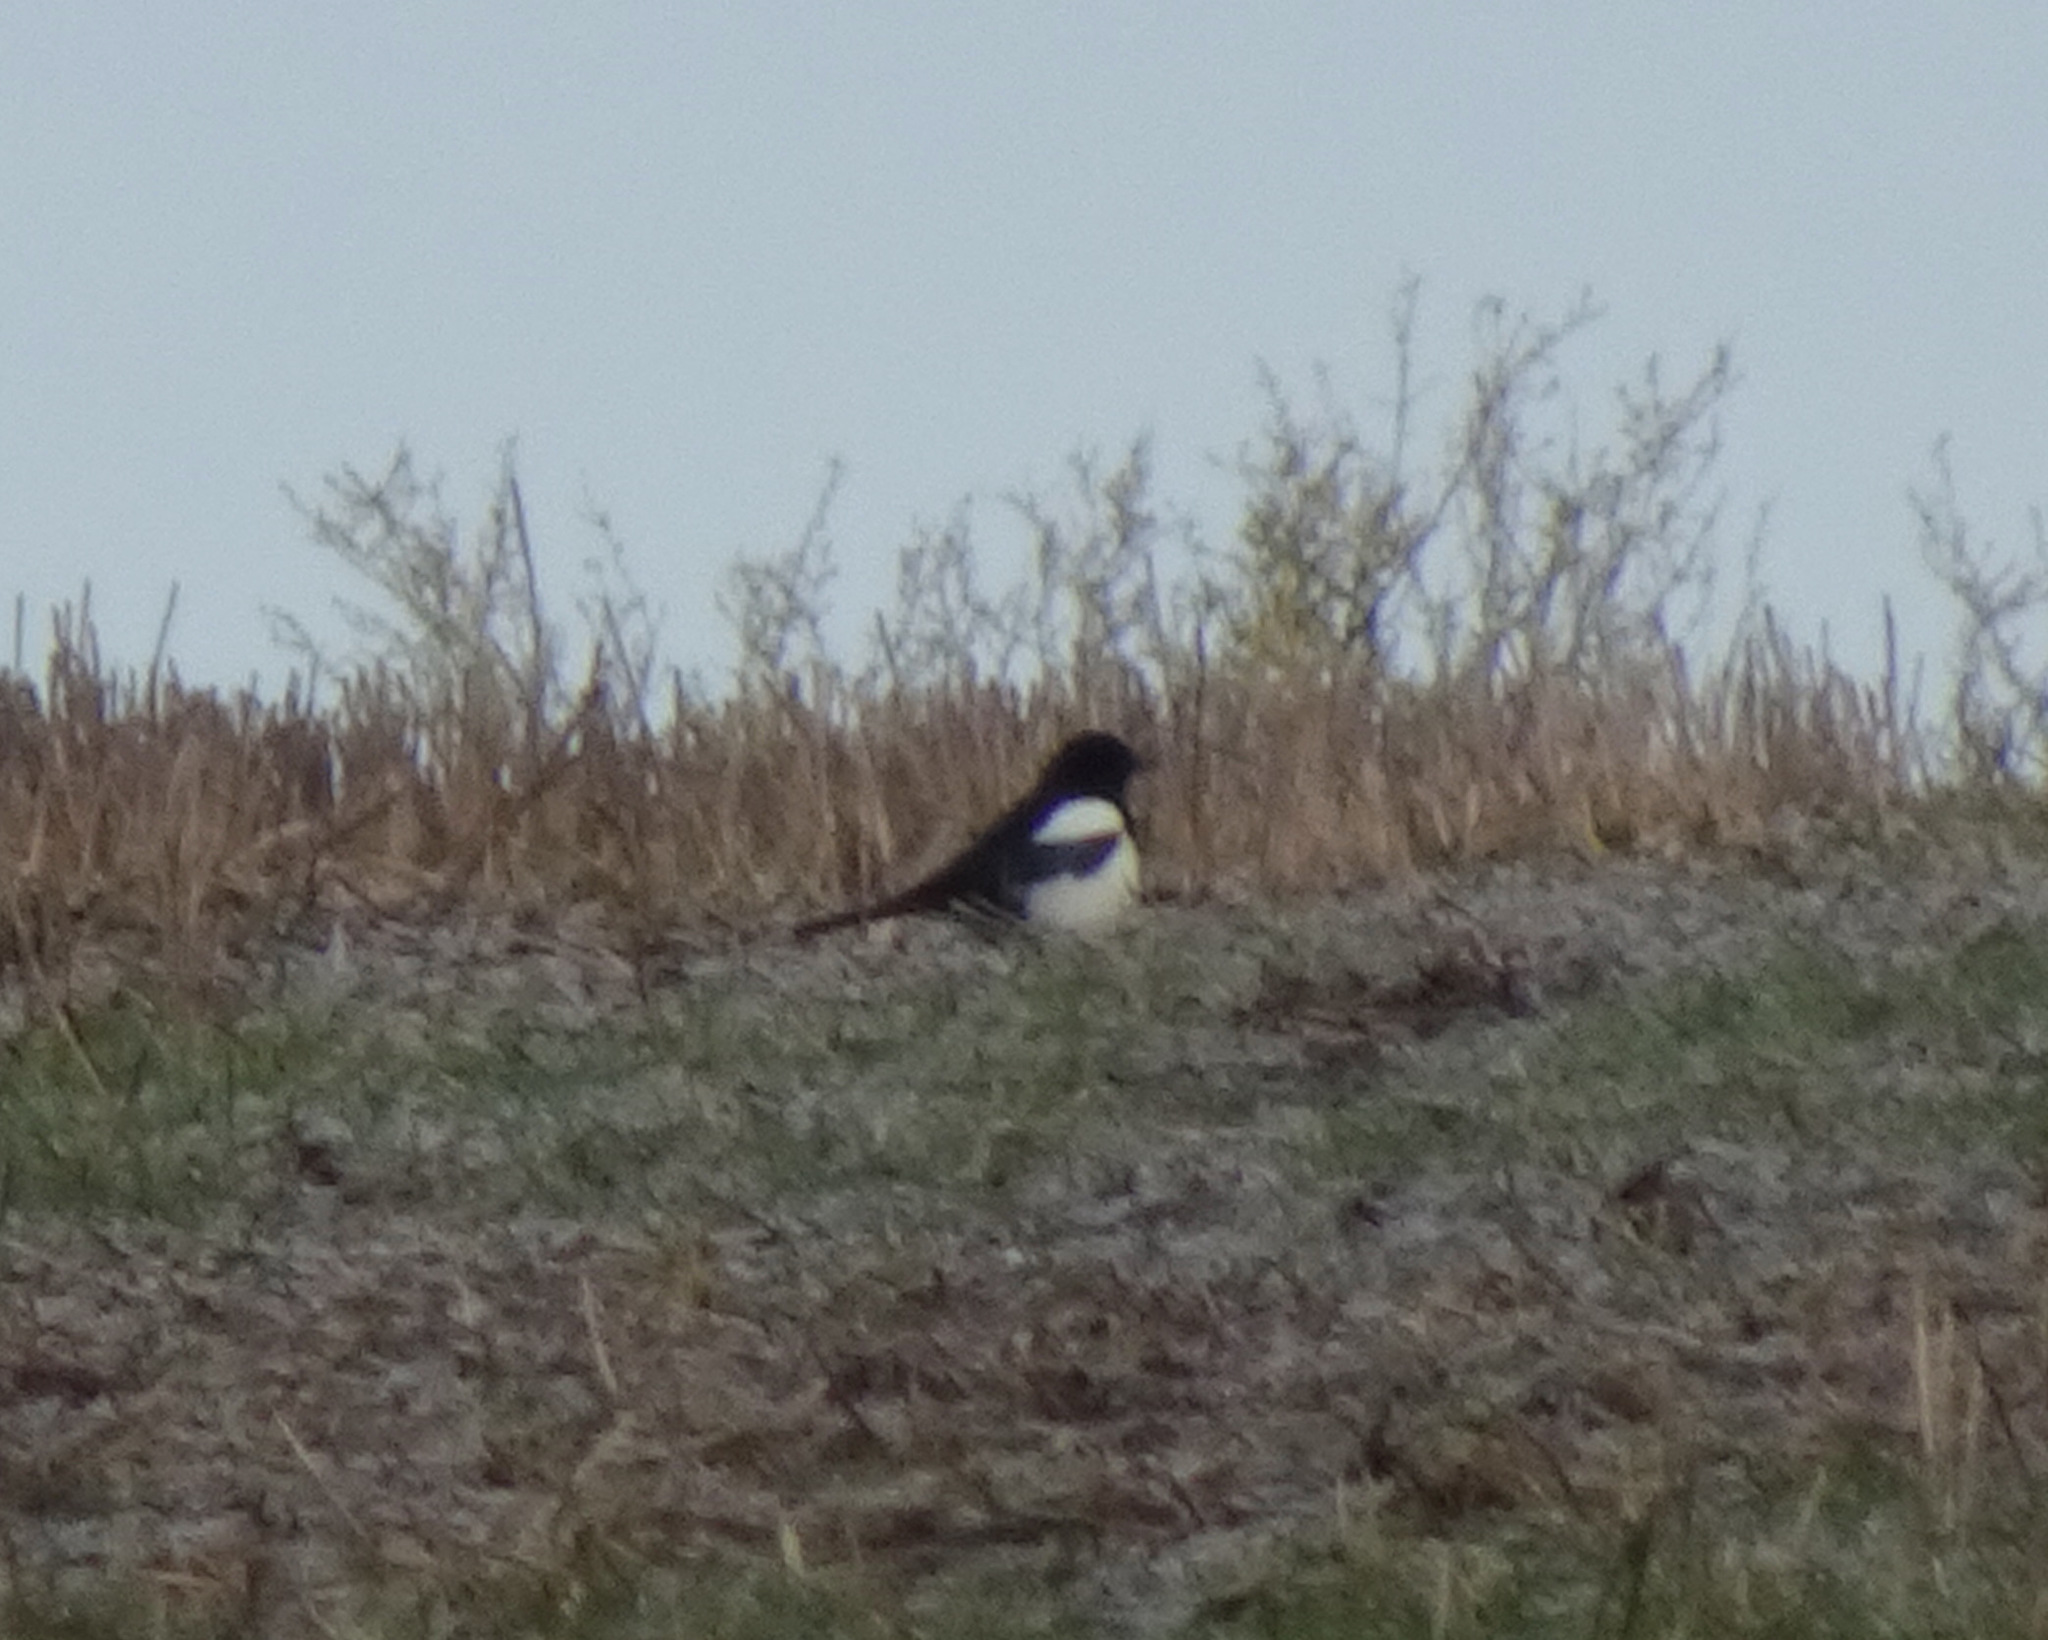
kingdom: Animalia
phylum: Chordata
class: Aves
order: Passeriformes
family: Corvidae
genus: Pica
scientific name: Pica pica
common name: Eurasian magpie
